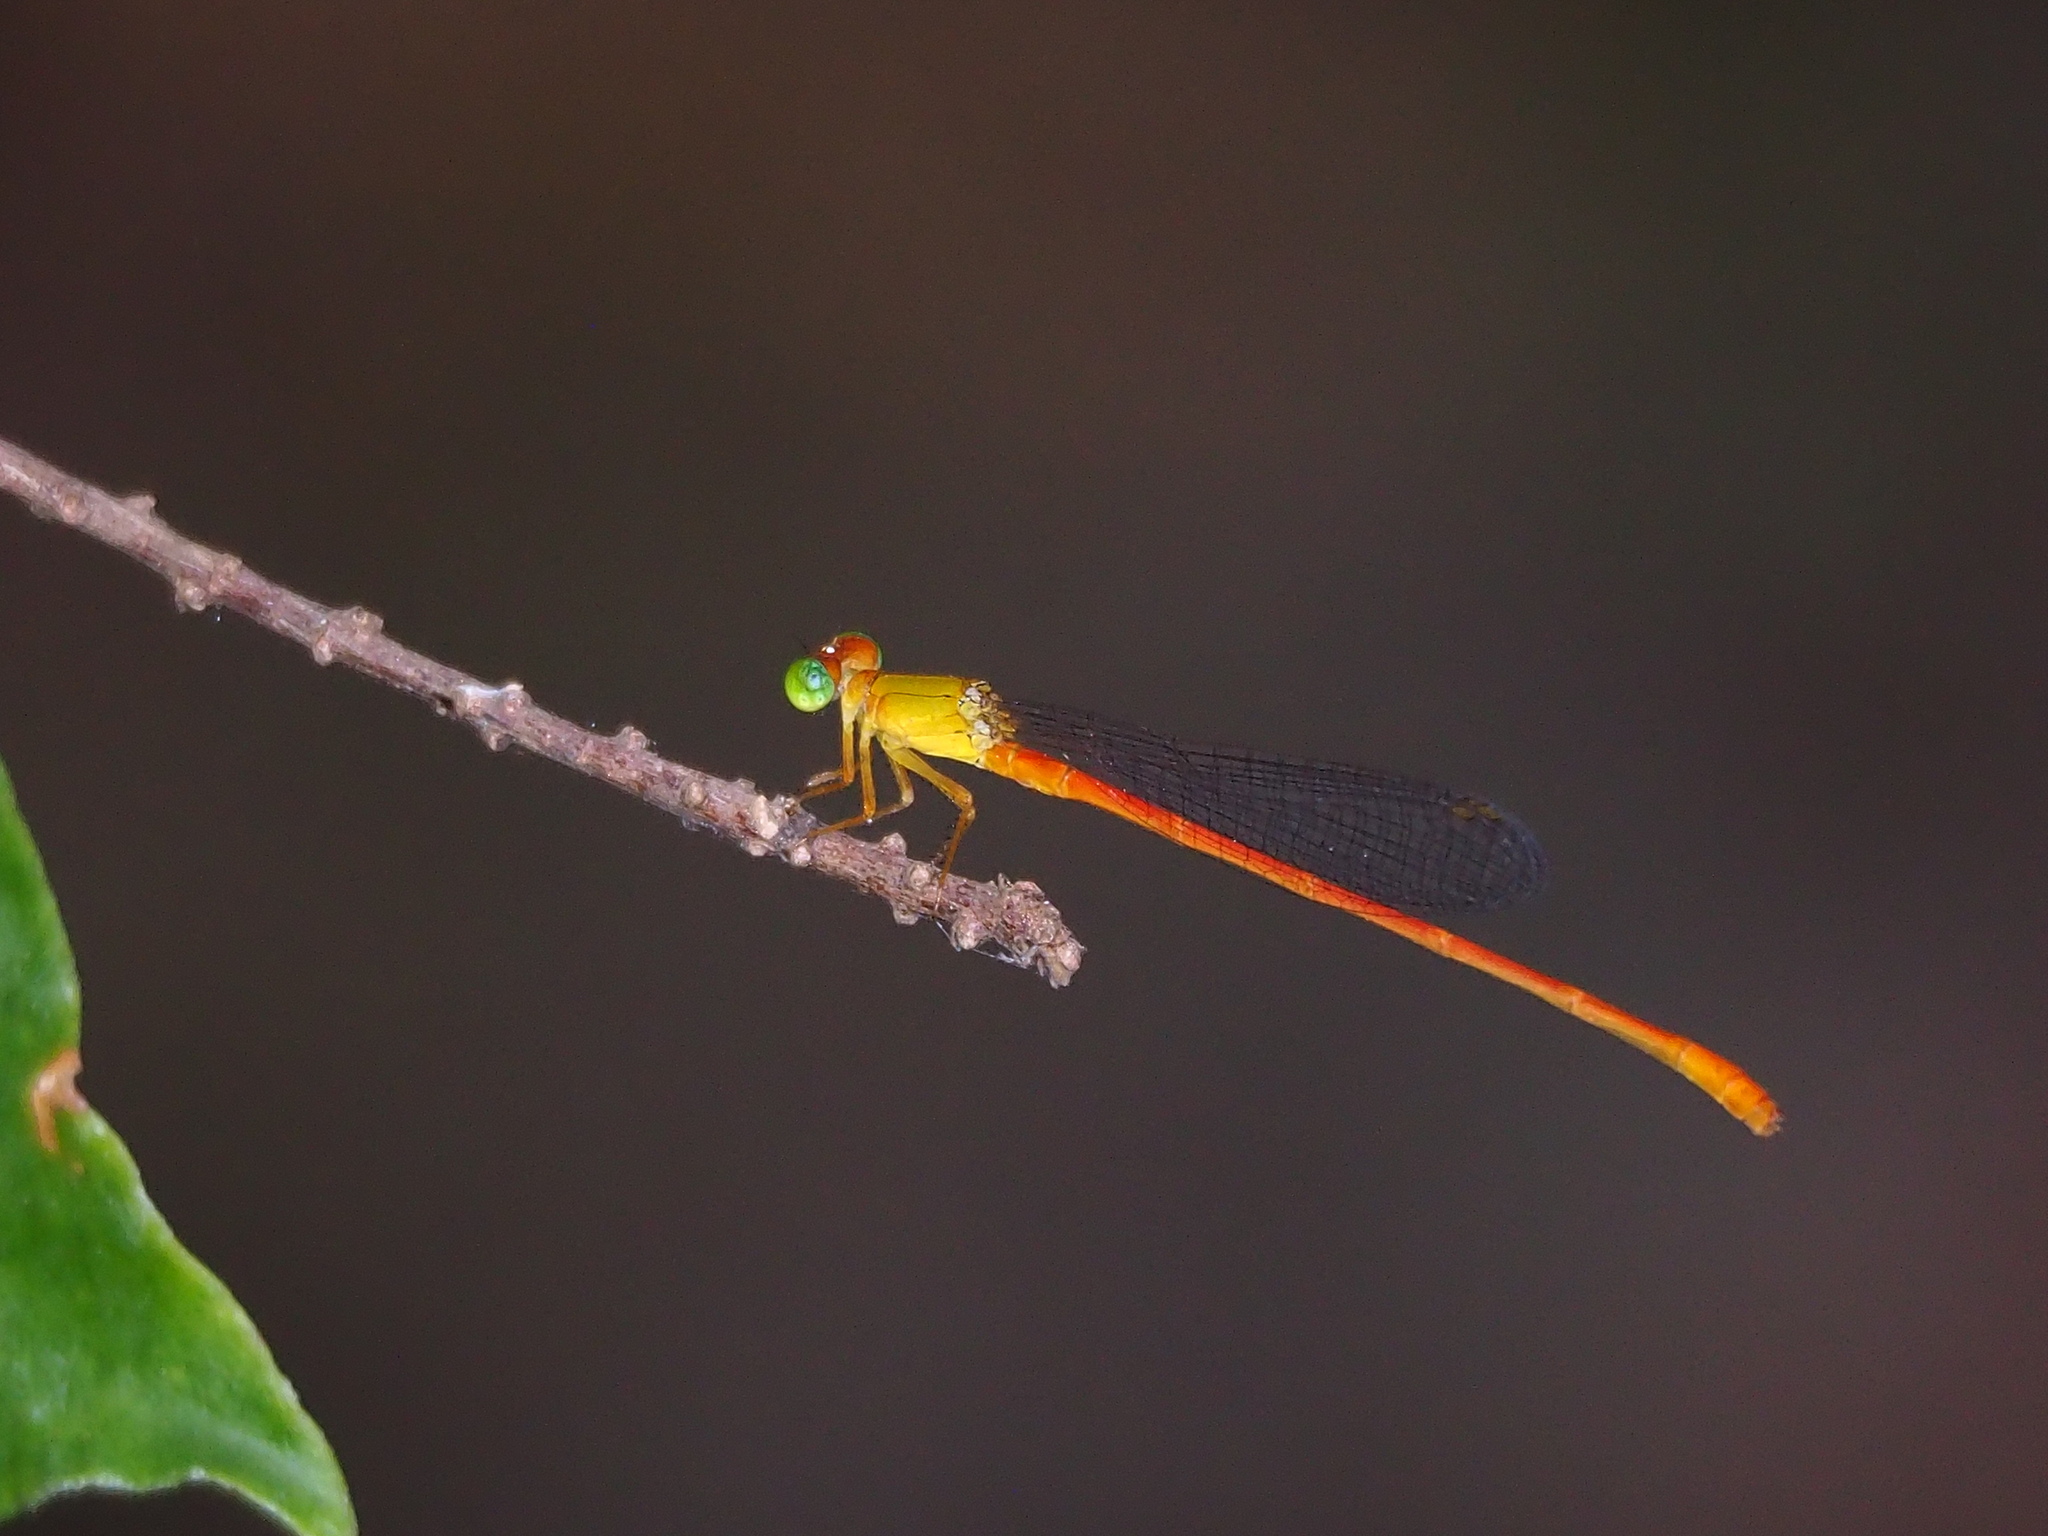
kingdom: Animalia
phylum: Arthropoda
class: Insecta
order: Odonata
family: Coenagrionidae
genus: Ceriagrion
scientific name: Ceriagrion auranticum
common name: Orange-tailed sprite
